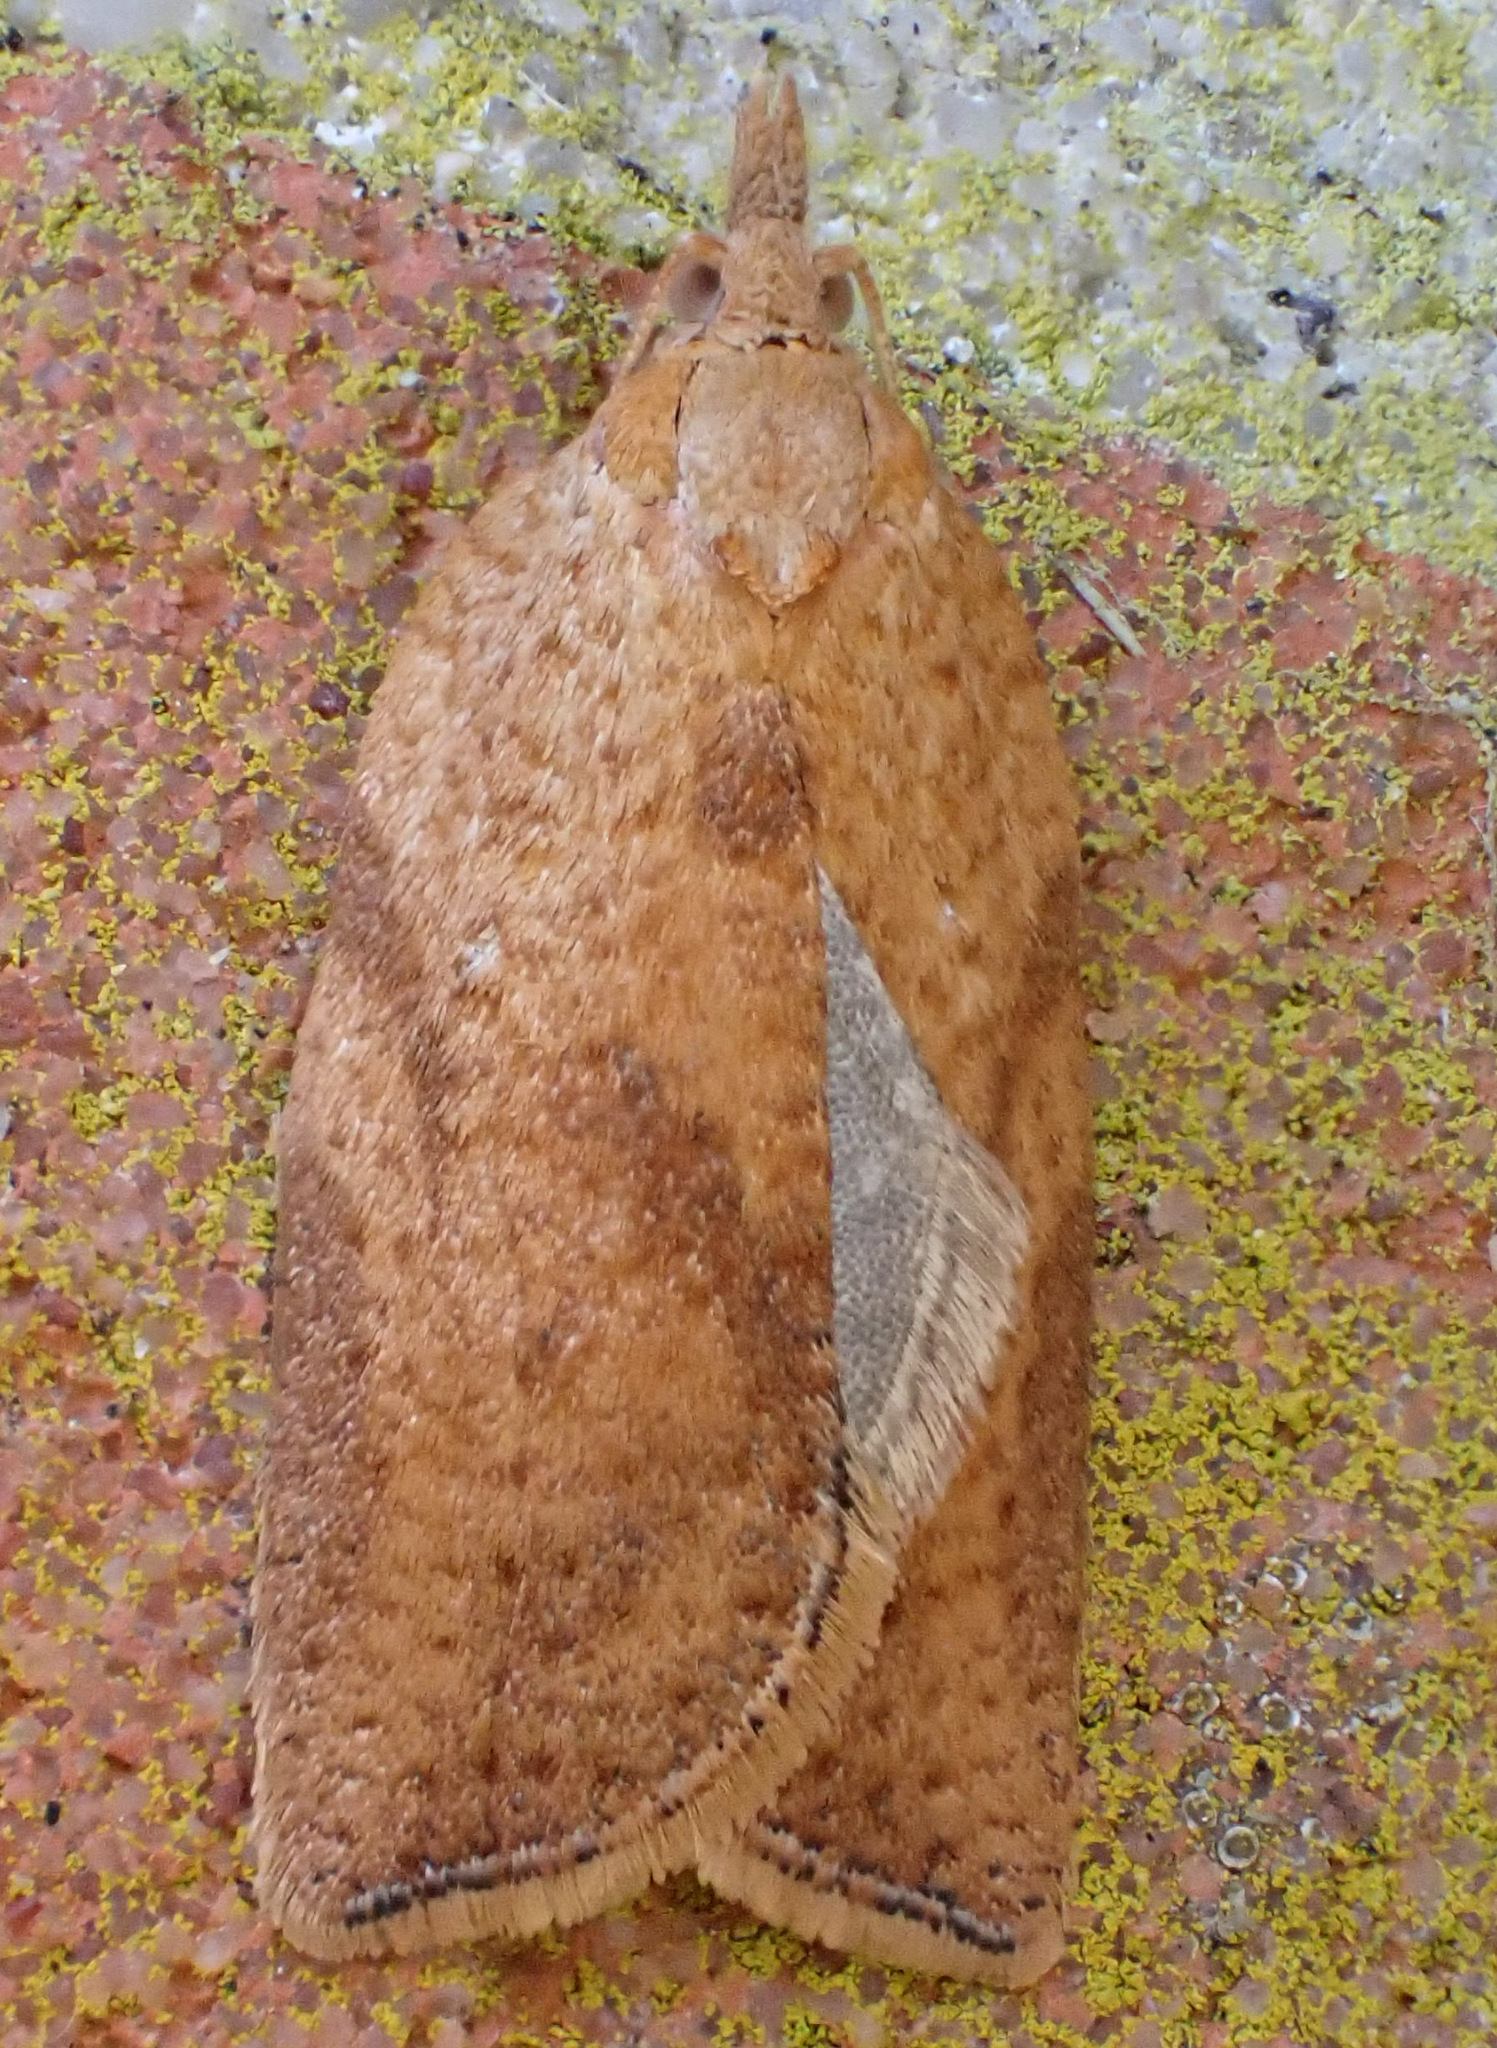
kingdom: Animalia
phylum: Arthropoda
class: Insecta
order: Lepidoptera
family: Tortricidae
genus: Epiphyas
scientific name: Epiphyas postvittana
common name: Light brown apple moth
